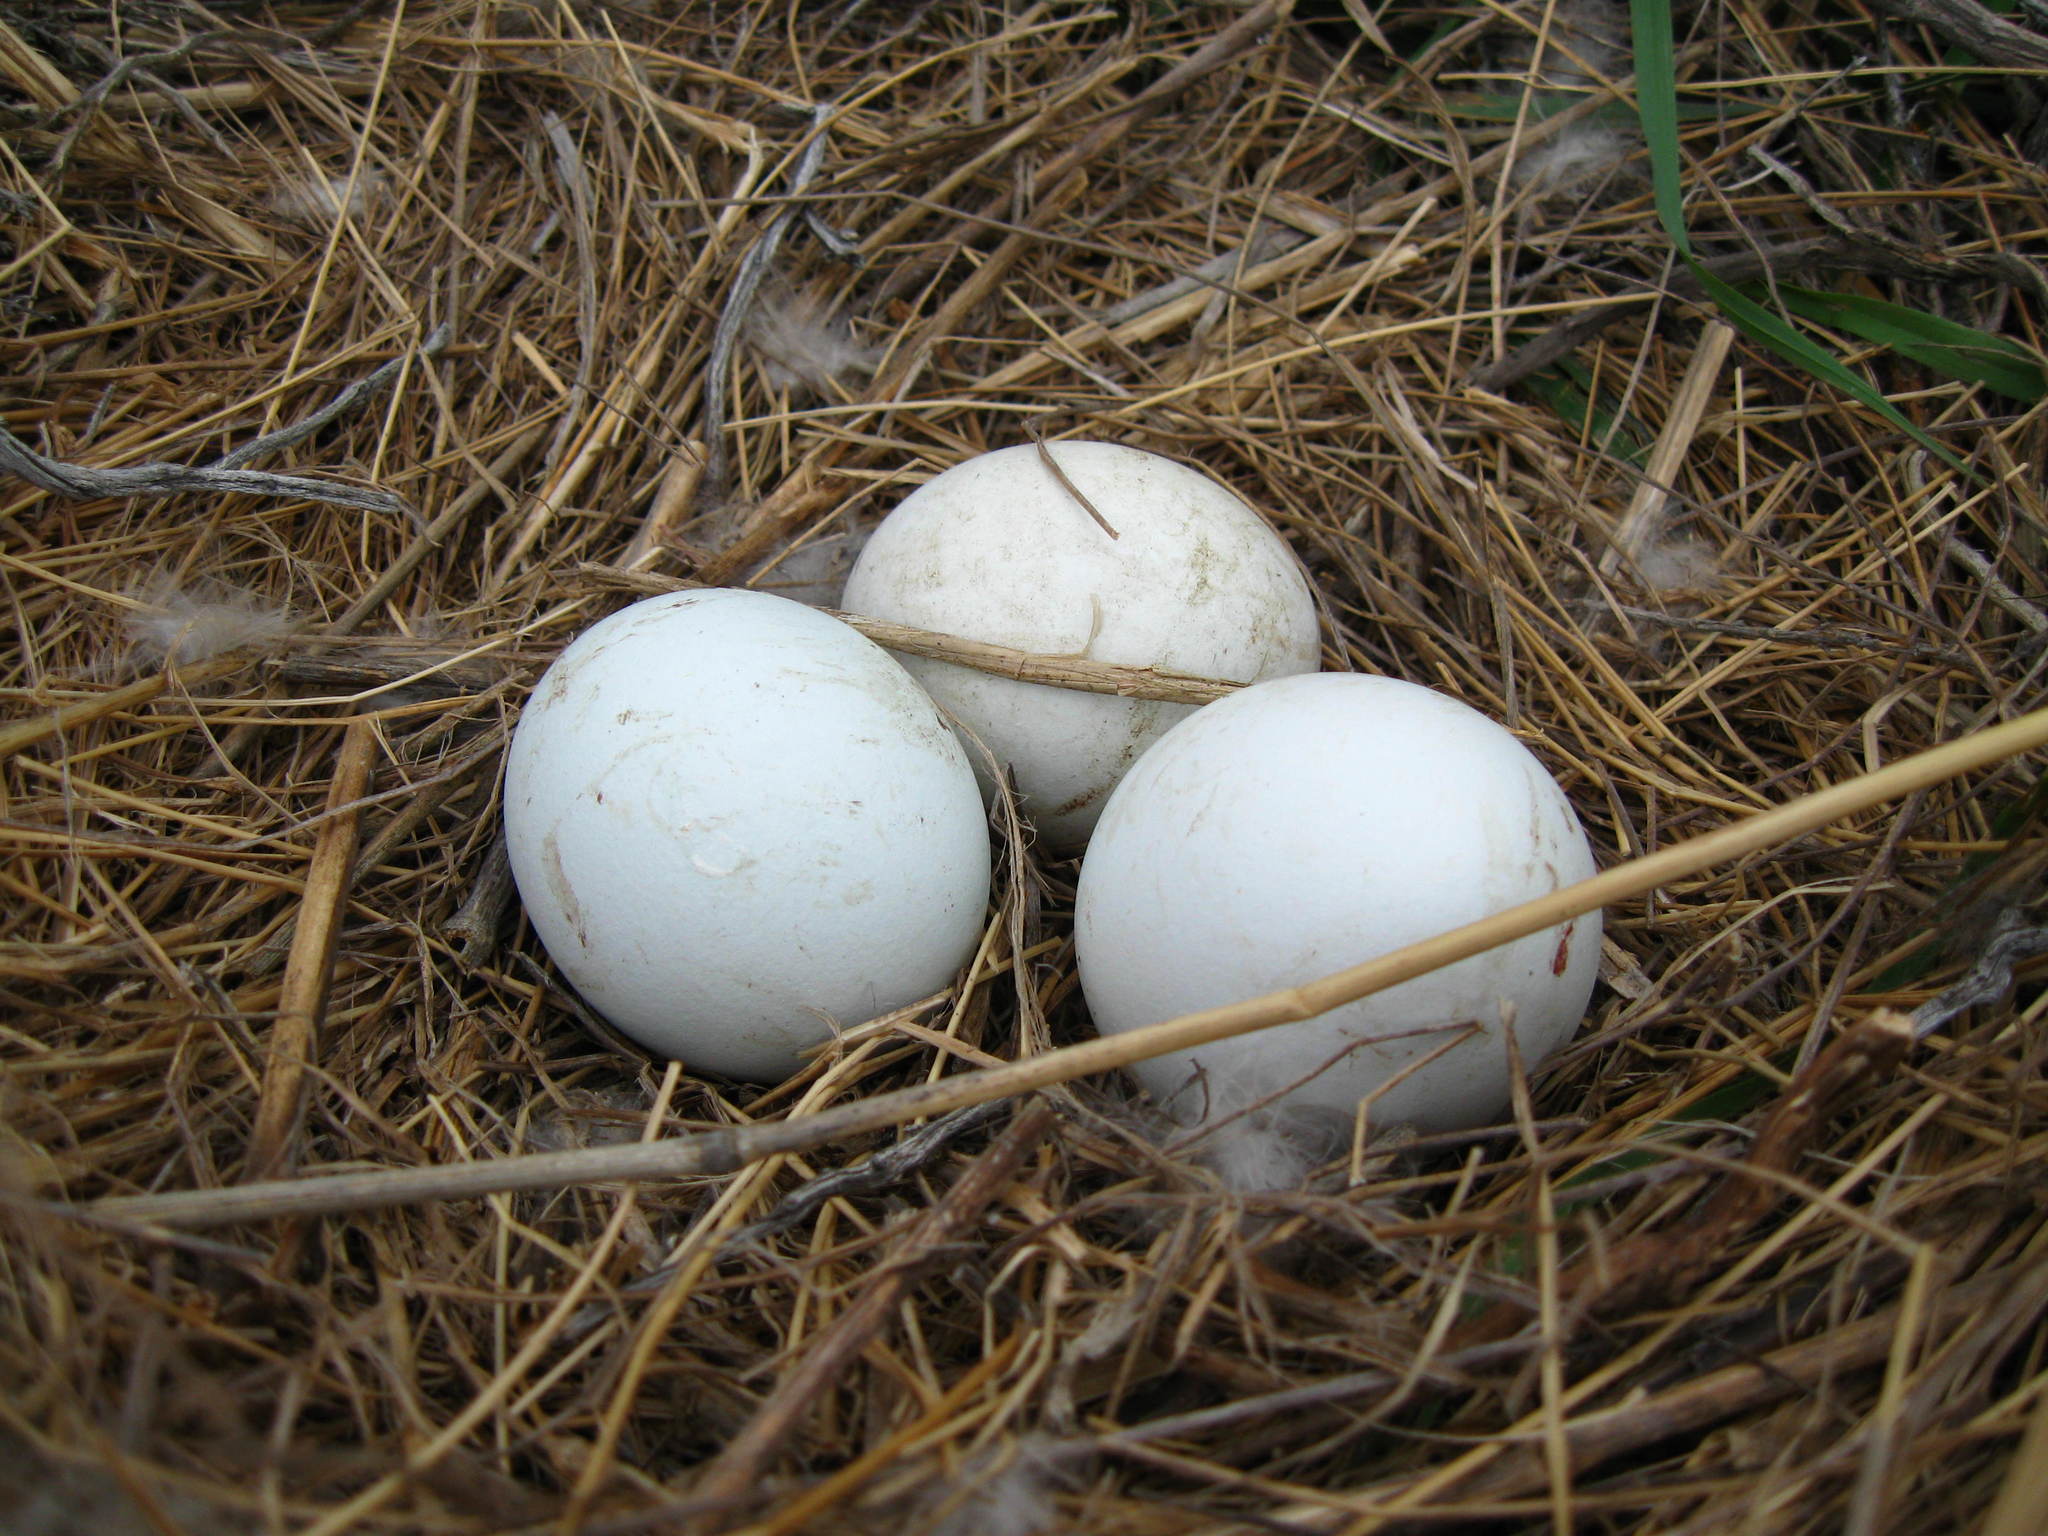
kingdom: Animalia
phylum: Chordata
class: Aves
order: Accipitriformes
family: Accipitridae
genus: Circus
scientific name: Circus approximans
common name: Swamp harrier
